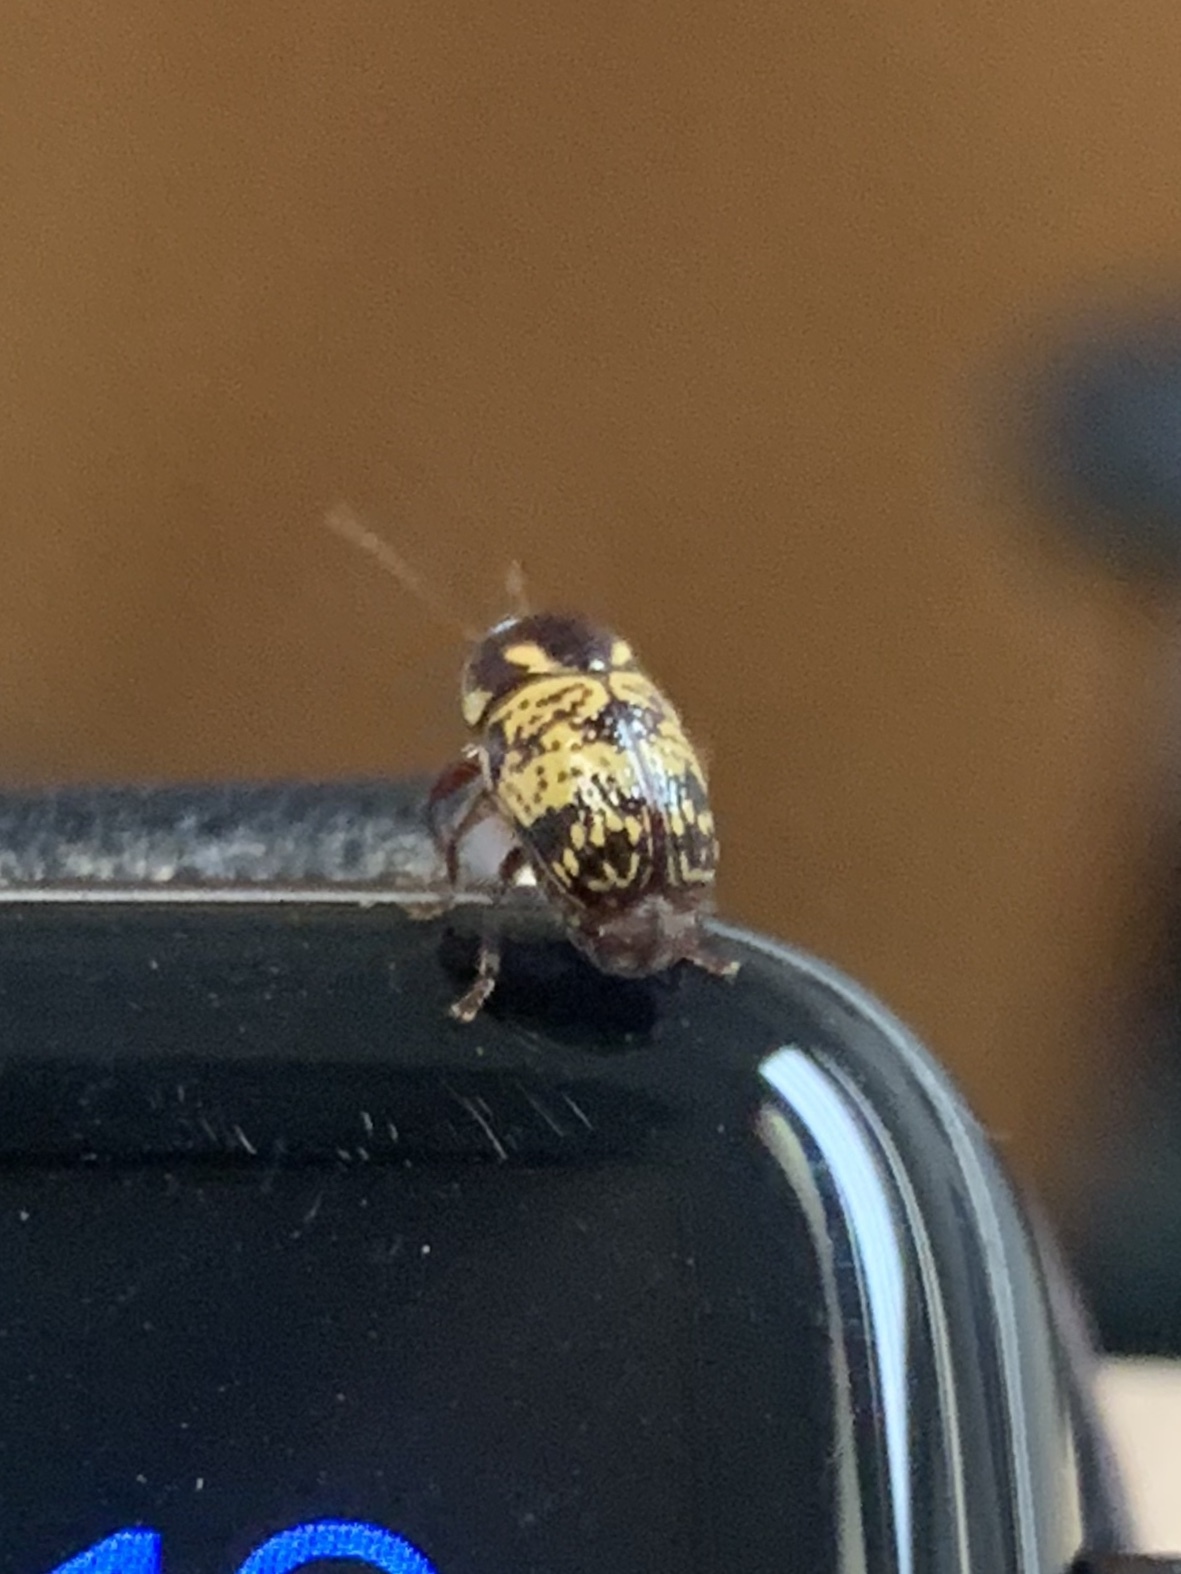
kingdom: Animalia
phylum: Arthropoda
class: Insecta
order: Coleoptera
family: Chrysomelidae
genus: Cryptocephalus
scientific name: Cryptocephalus irroratus
